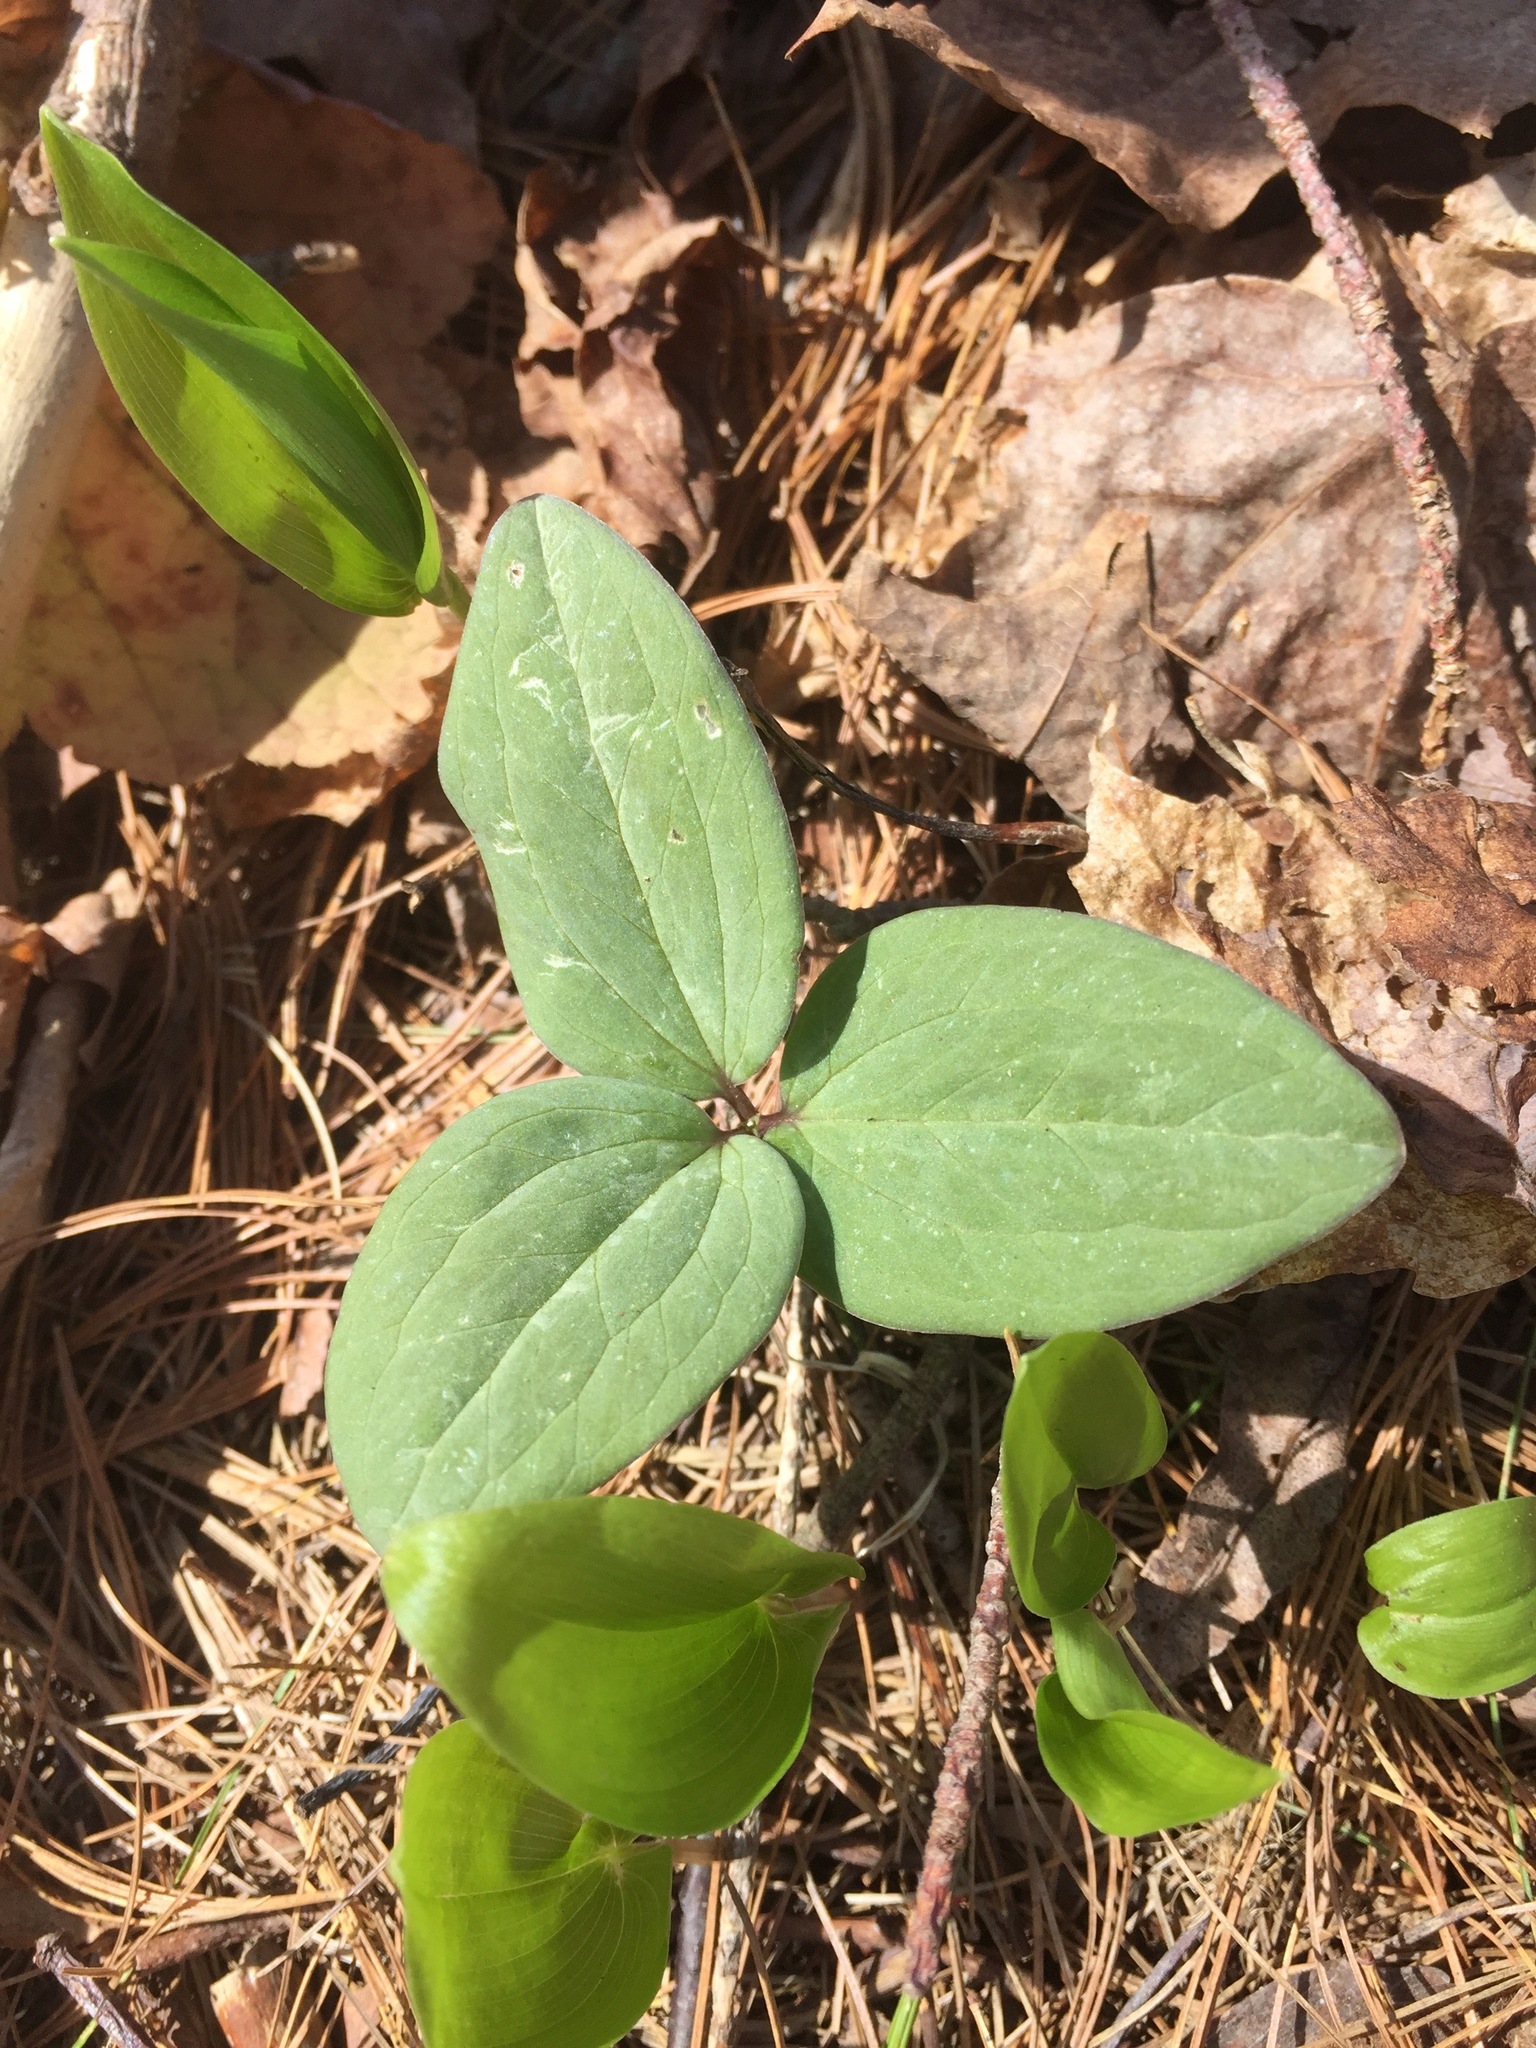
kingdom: Plantae
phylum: Tracheophyta
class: Liliopsida
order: Liliales
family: Melanthiaceae
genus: Trillium
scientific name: Trillium nivale
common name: Dwarf white trillium
